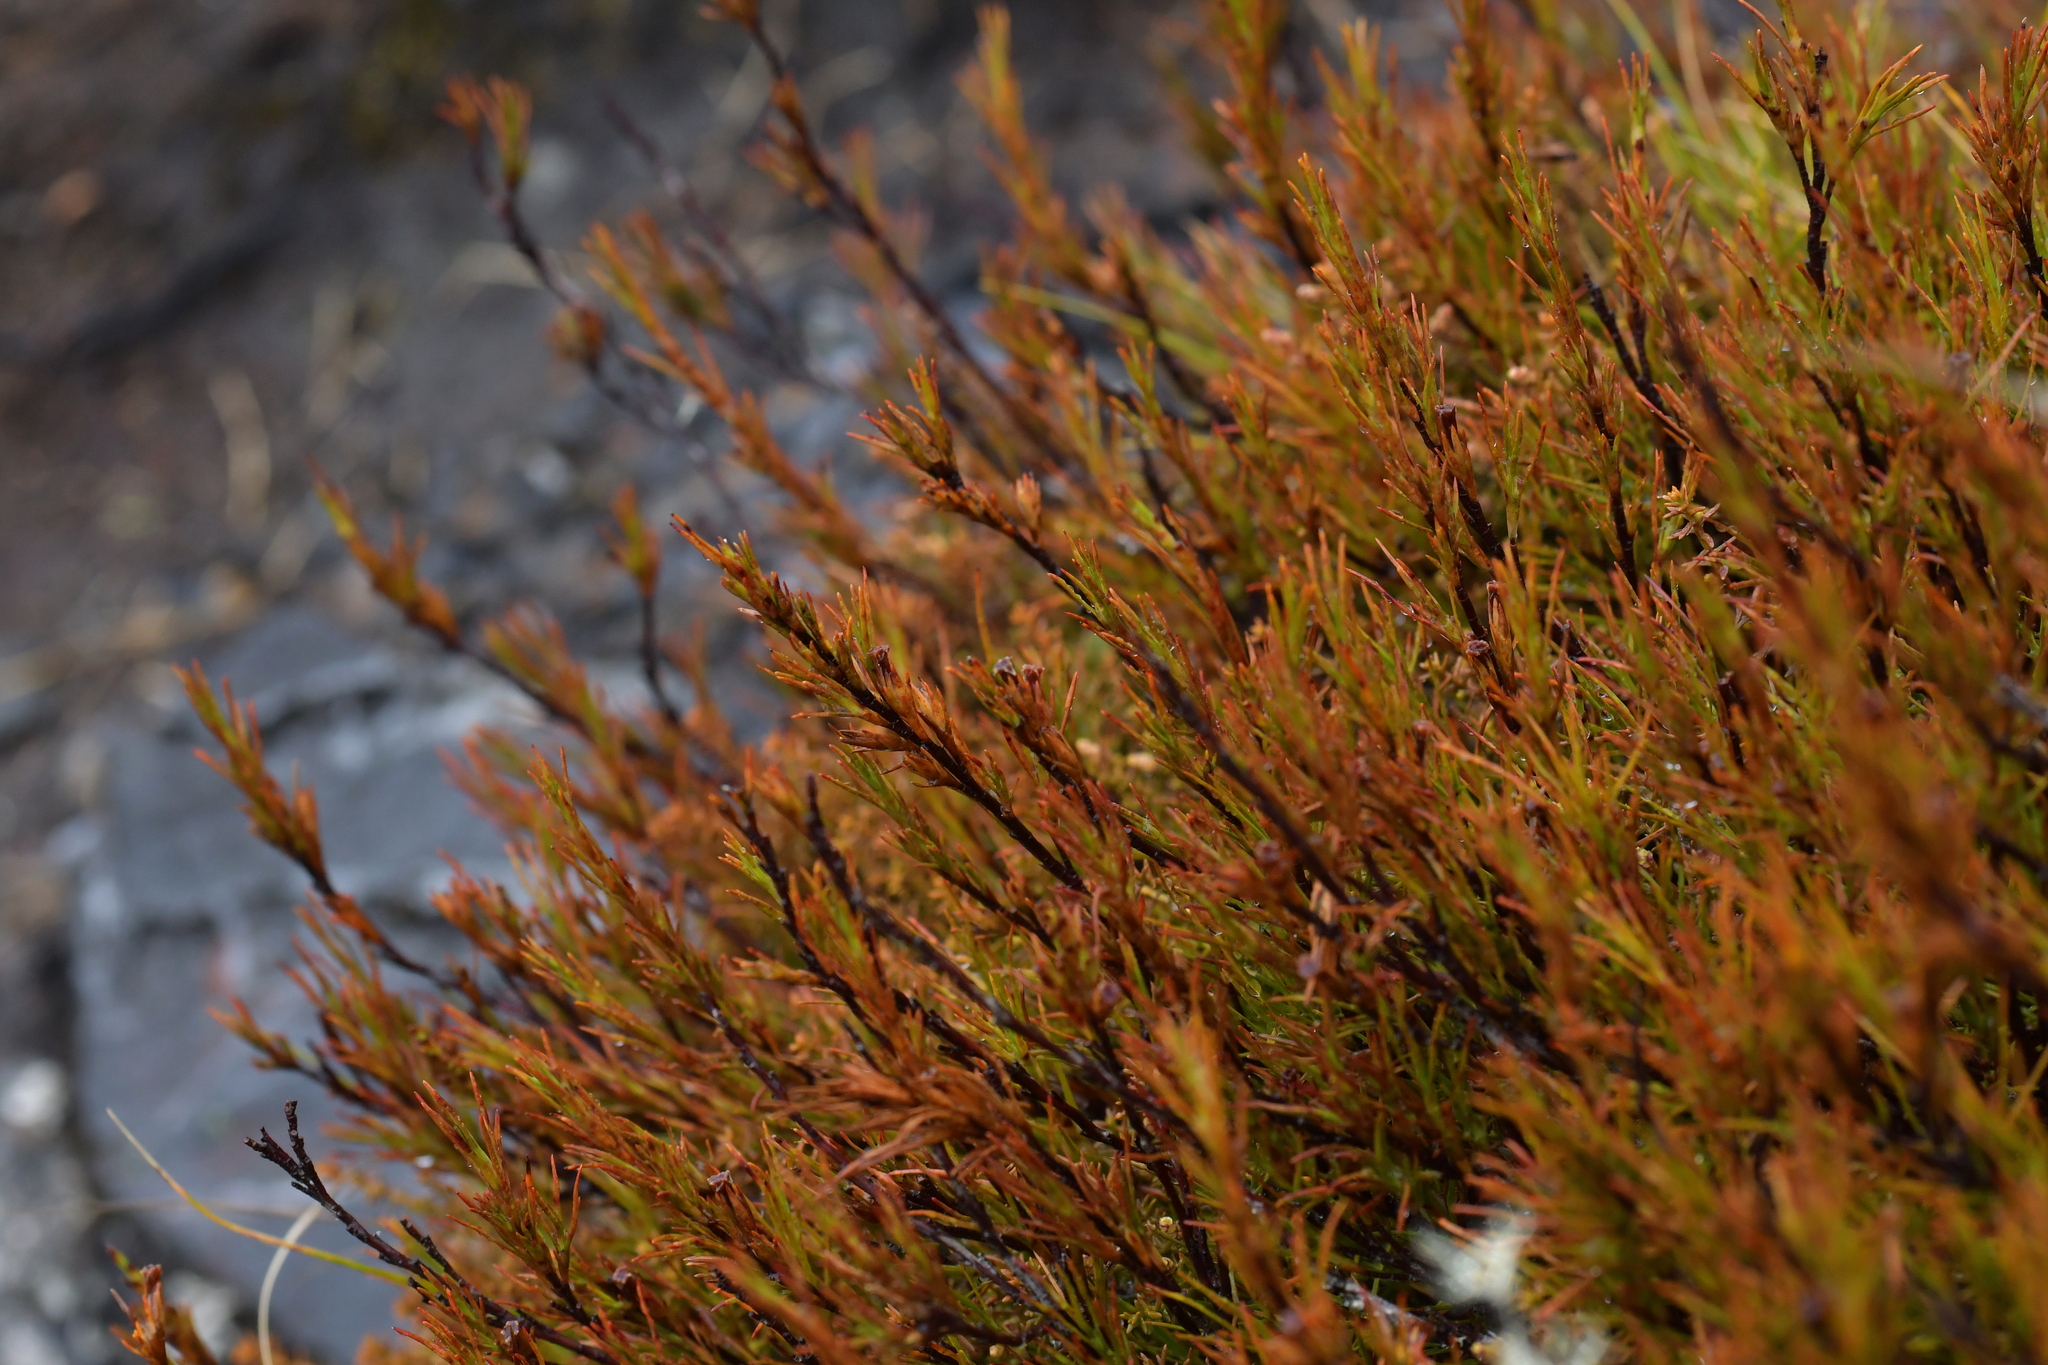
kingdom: Plantae
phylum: Tracheophyta
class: Magnoliopsida
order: Ericales
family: Ericaceae
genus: Dracophyllum
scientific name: Dracophyllum rosmarinifolium
